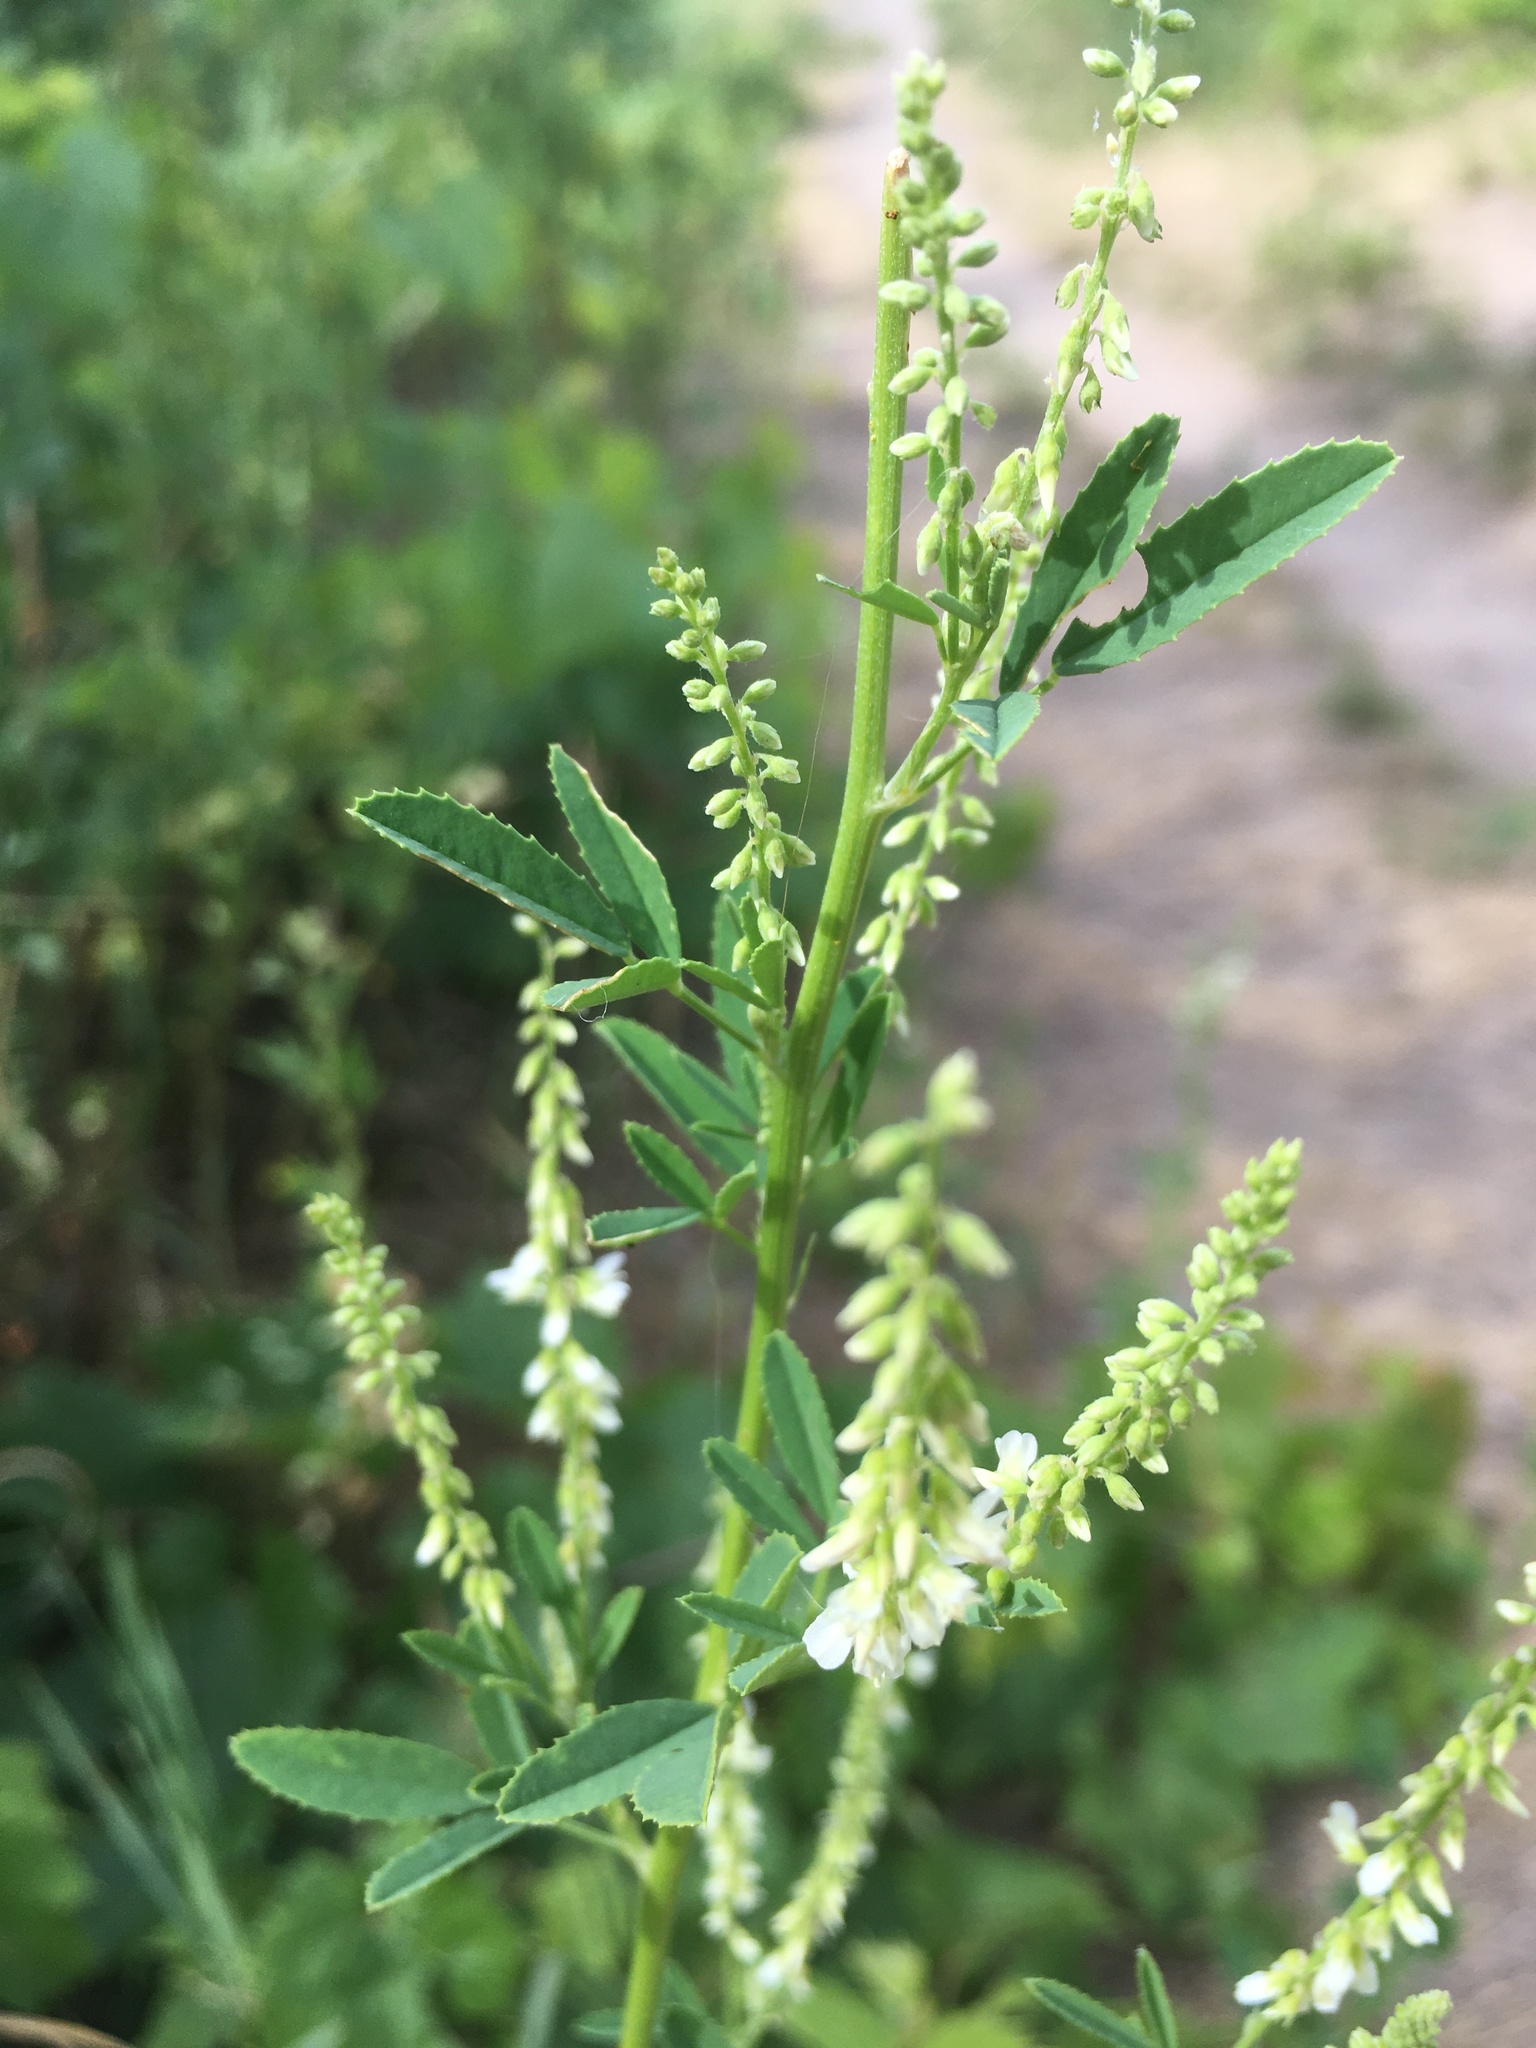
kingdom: Plantae
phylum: Tracheophyta
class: Magnoliopsida
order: Fabales
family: Fabaceae
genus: Melilotus
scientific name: Melilotus albus
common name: White melilot
